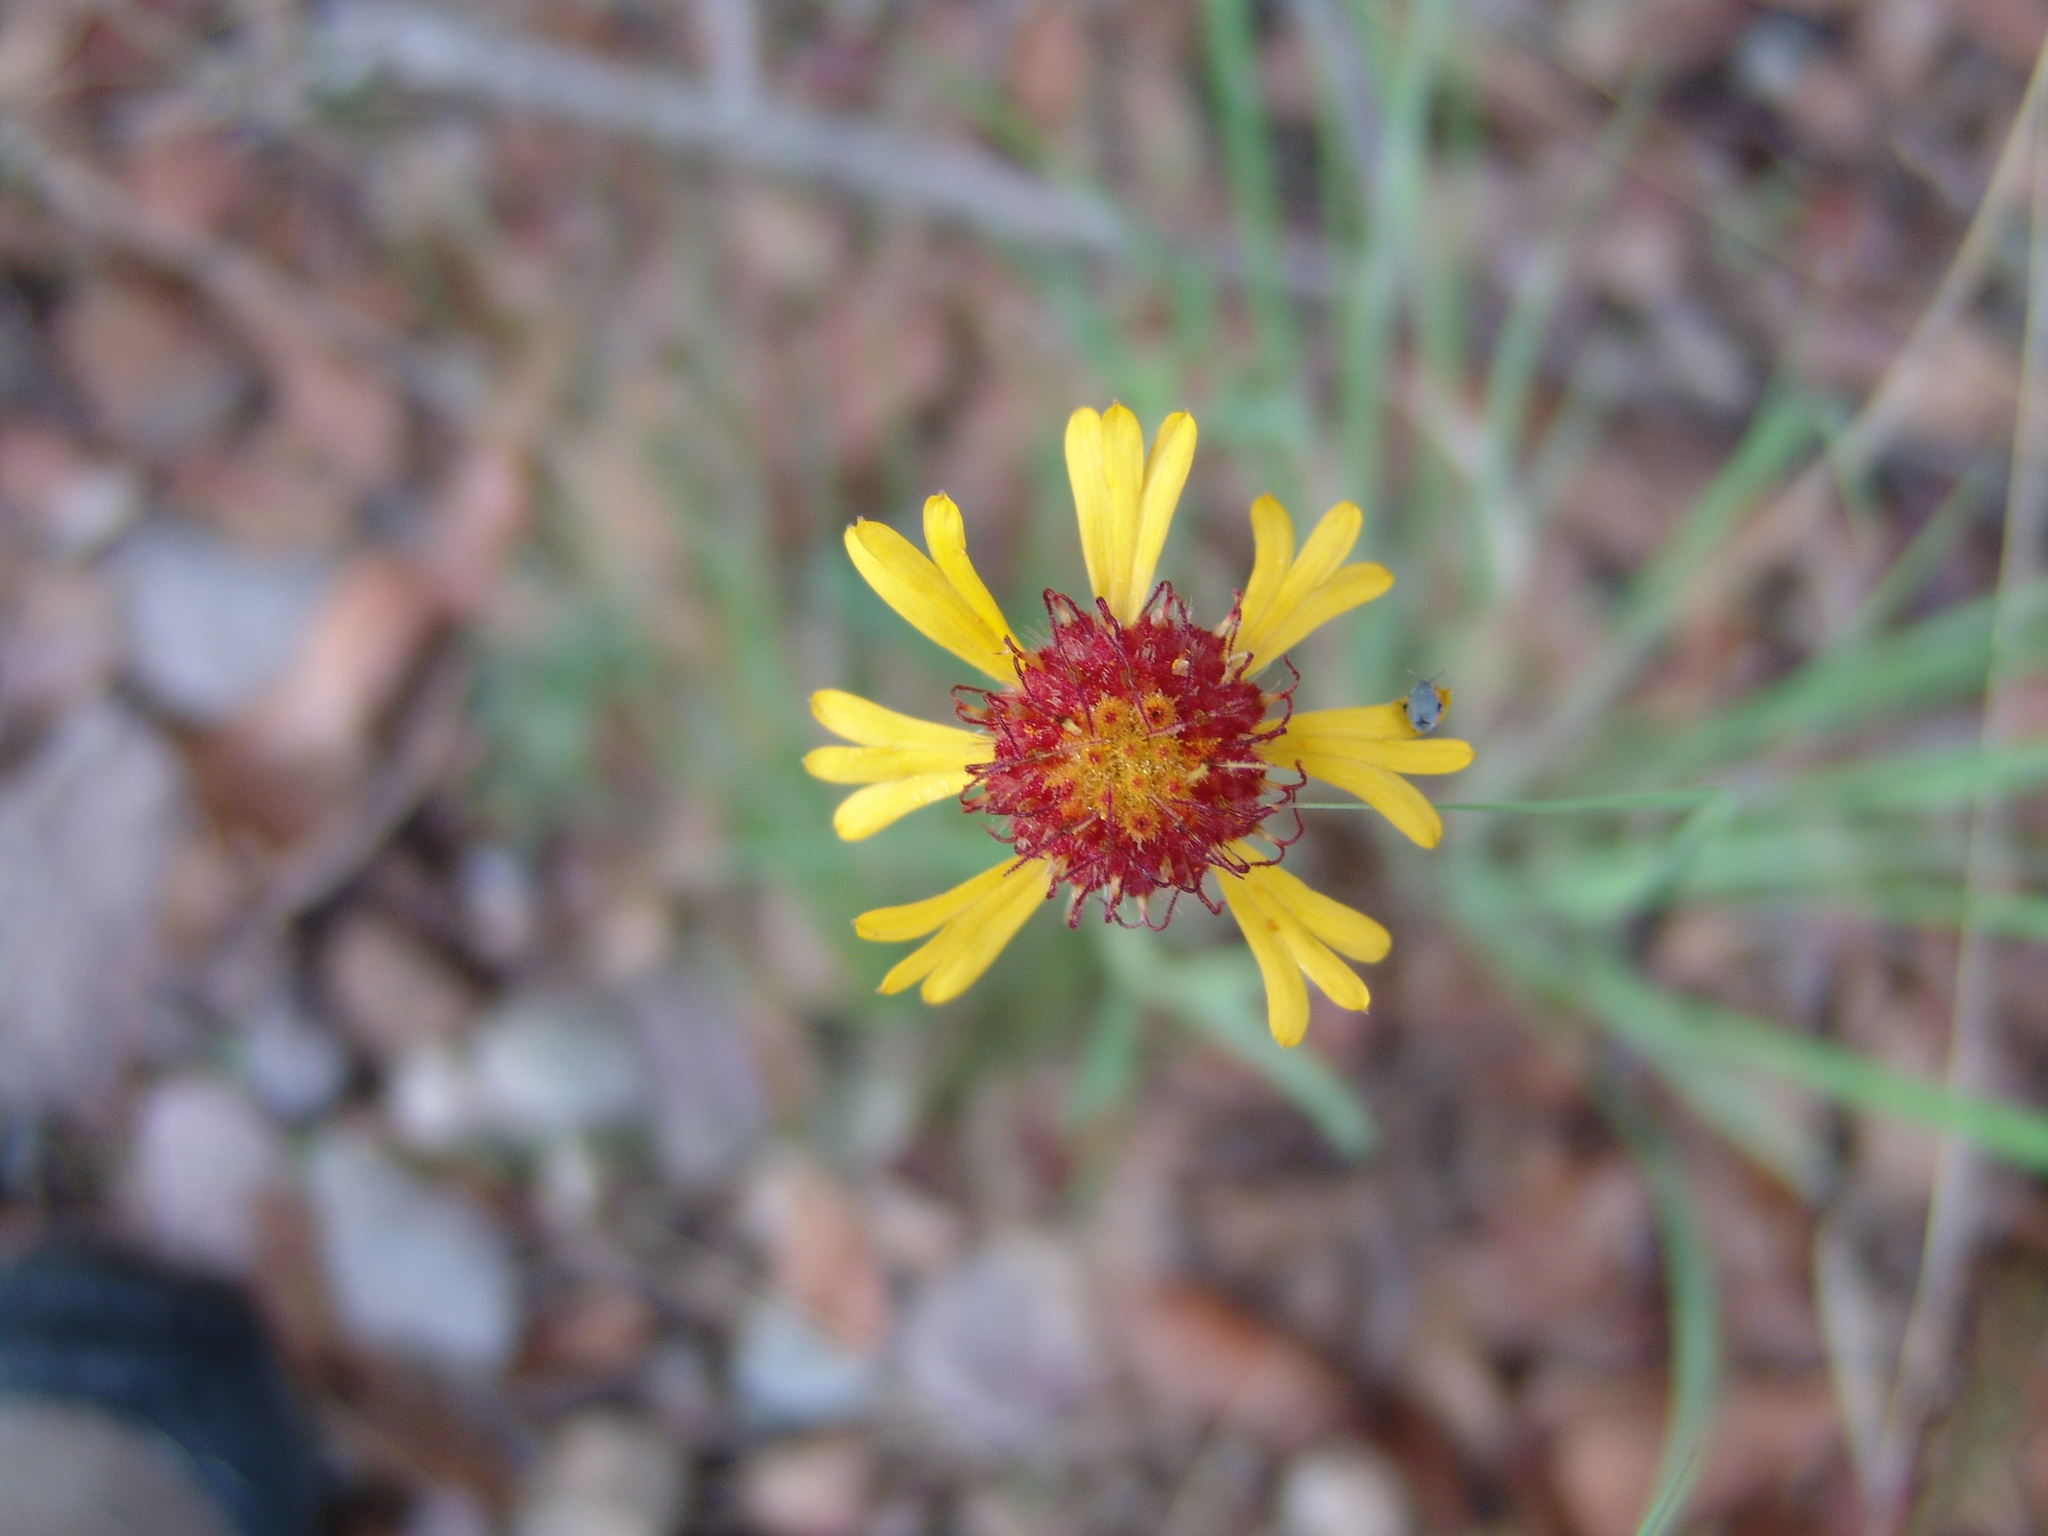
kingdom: Plantae
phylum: Tracheophyta
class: Magnoliopsida
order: Asterales
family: Asteraceae
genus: Gaillardia
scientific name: Gaillardia pinnatifida
